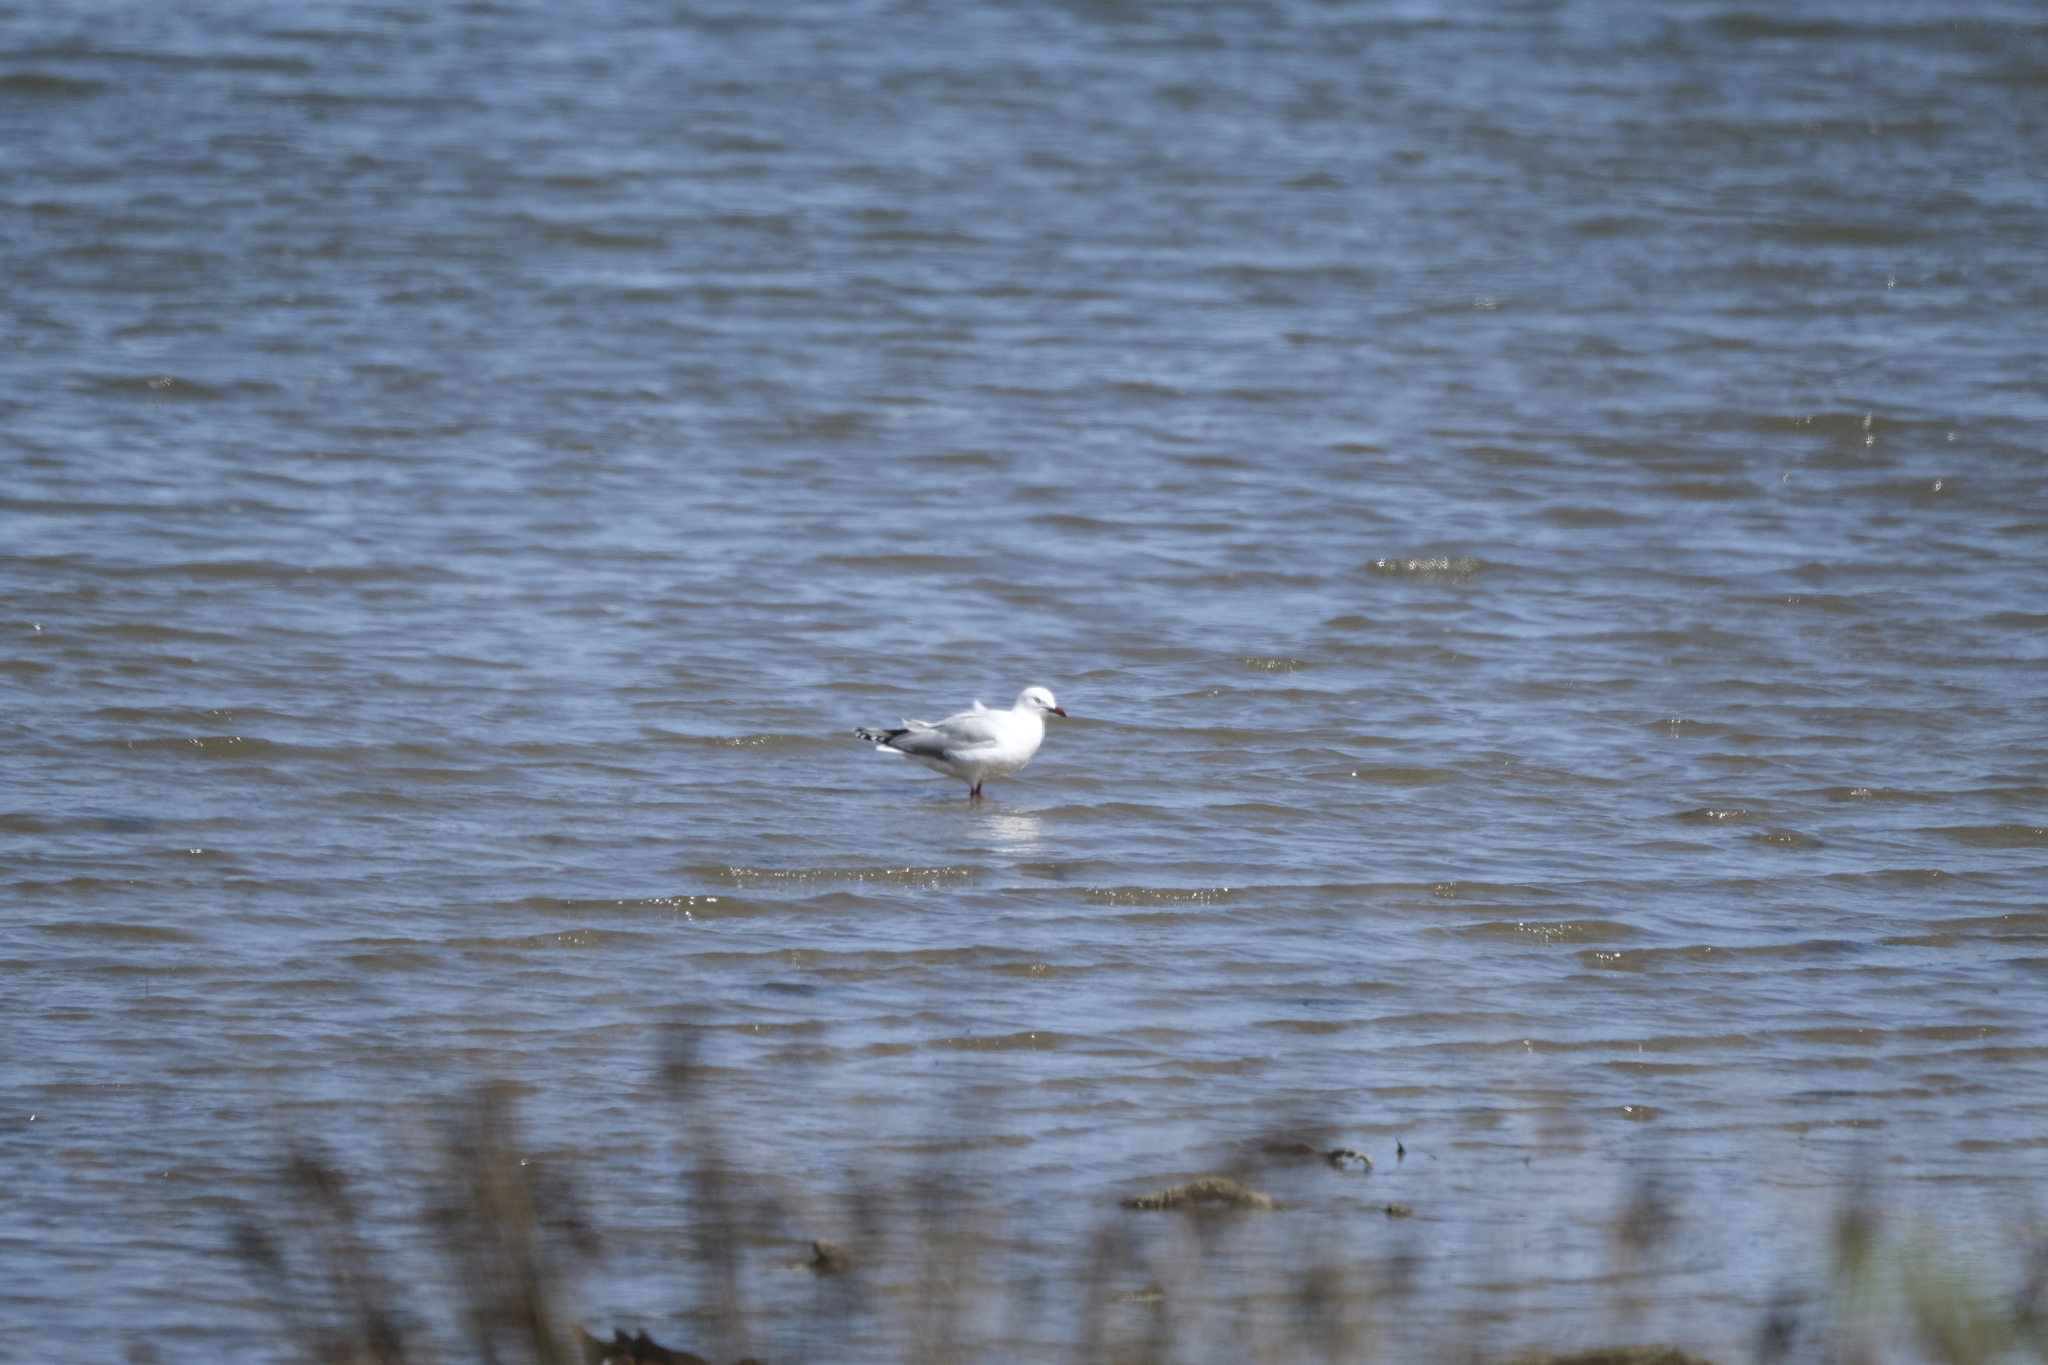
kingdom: Animalia
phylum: Chordata
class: Aves
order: Charadriiformes
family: Laridae
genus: Chroicocephalus
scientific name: Chroicocephalus novaehollandiae
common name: Silver gull
